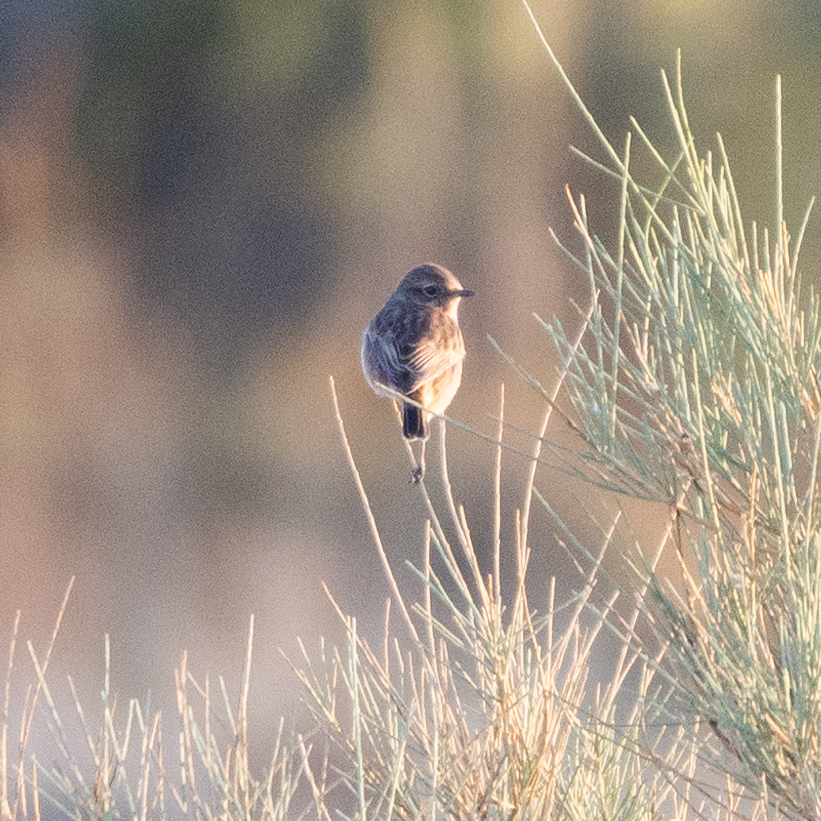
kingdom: Animalia
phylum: Chordata
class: Aves
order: Passeriformes
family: Muscicapidae
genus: Saxicola
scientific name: Saxicola rubicola
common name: European stonechat
